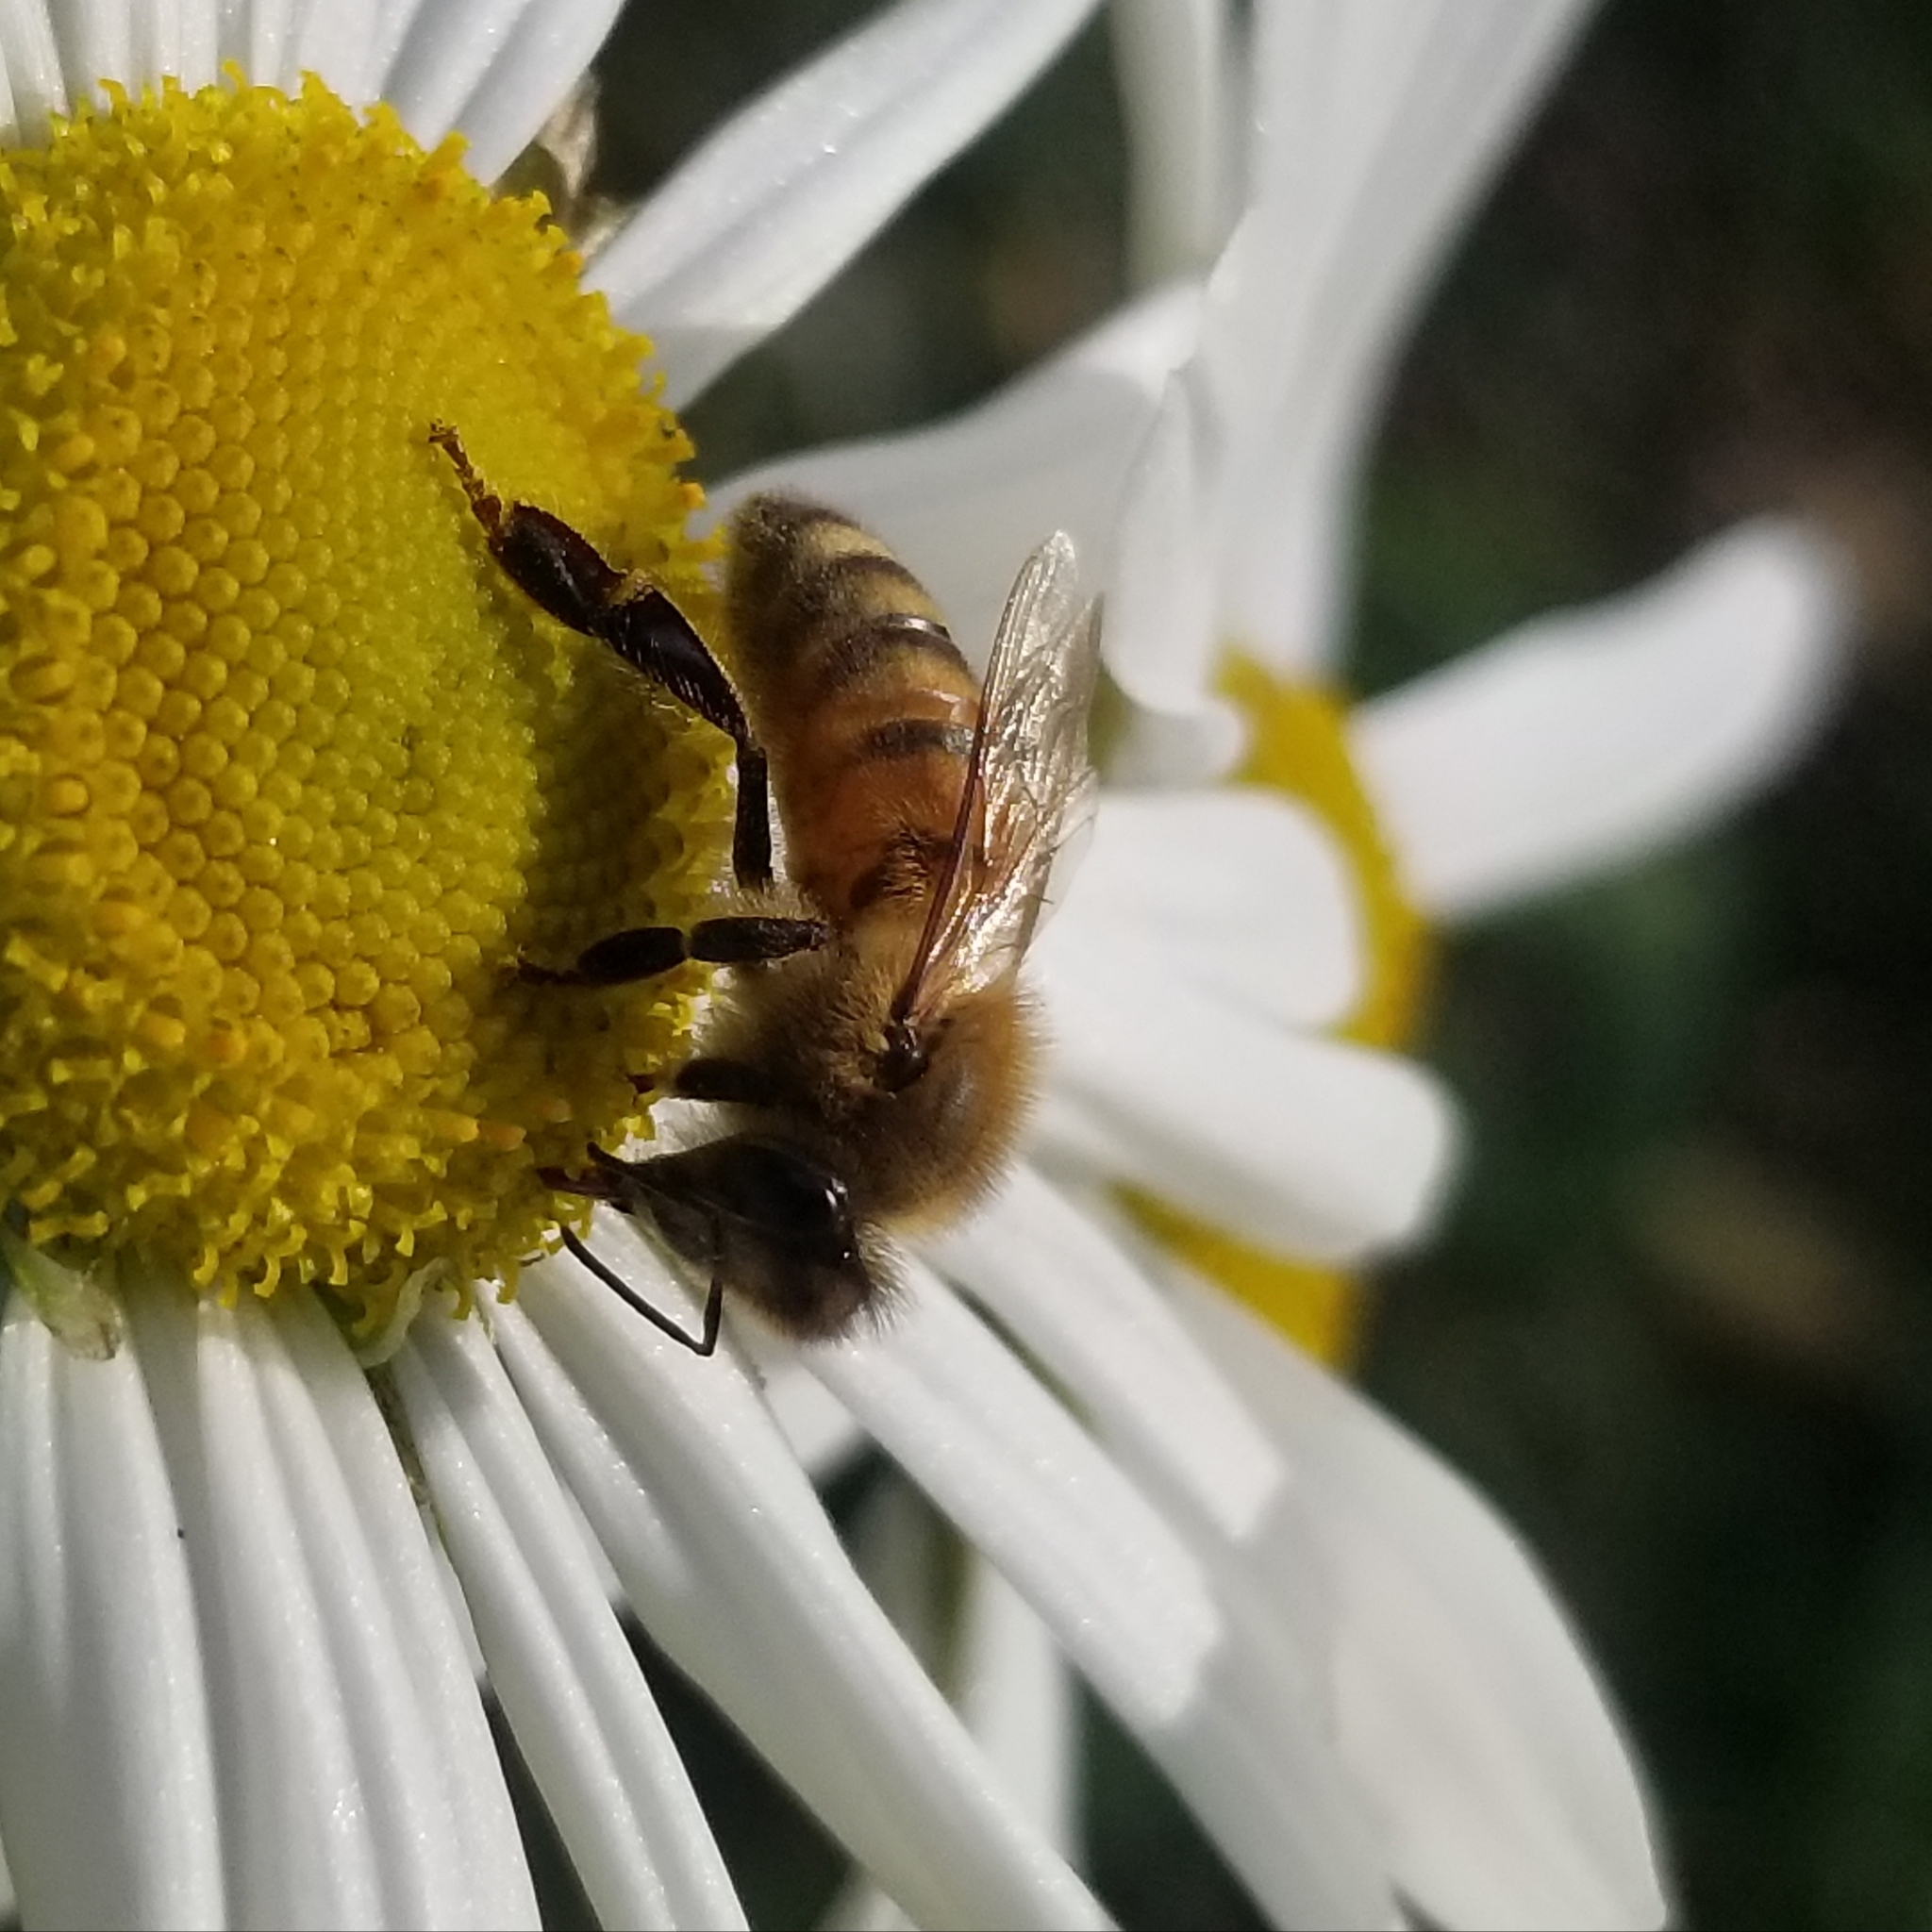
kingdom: Animalia
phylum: Arthropoda
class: Insecta
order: Hymenoptera
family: Apidae
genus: Apis
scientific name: Apis mellifera
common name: Honey bee
